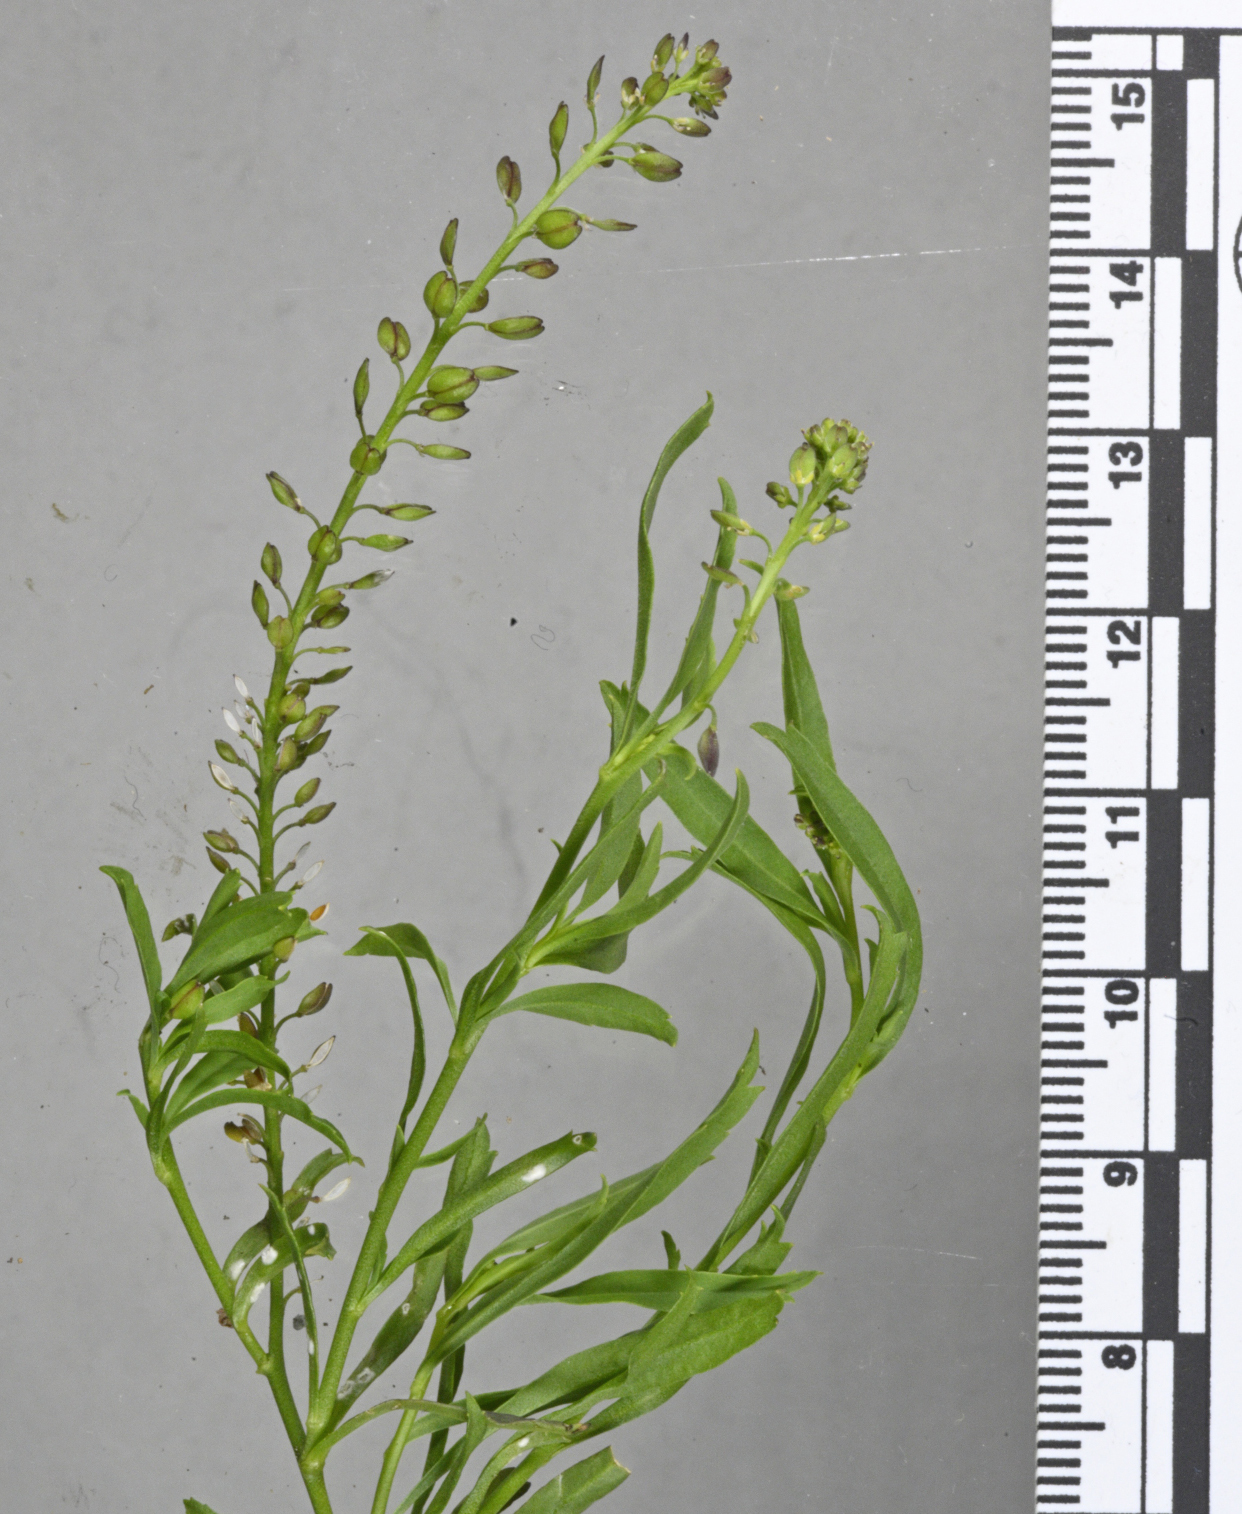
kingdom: Plantae
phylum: Tracheophyta
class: Magnoliopsida
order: Brassicales
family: Brassicaceae
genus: Lepidium
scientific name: Lepidium africanum
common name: African pepperwort
